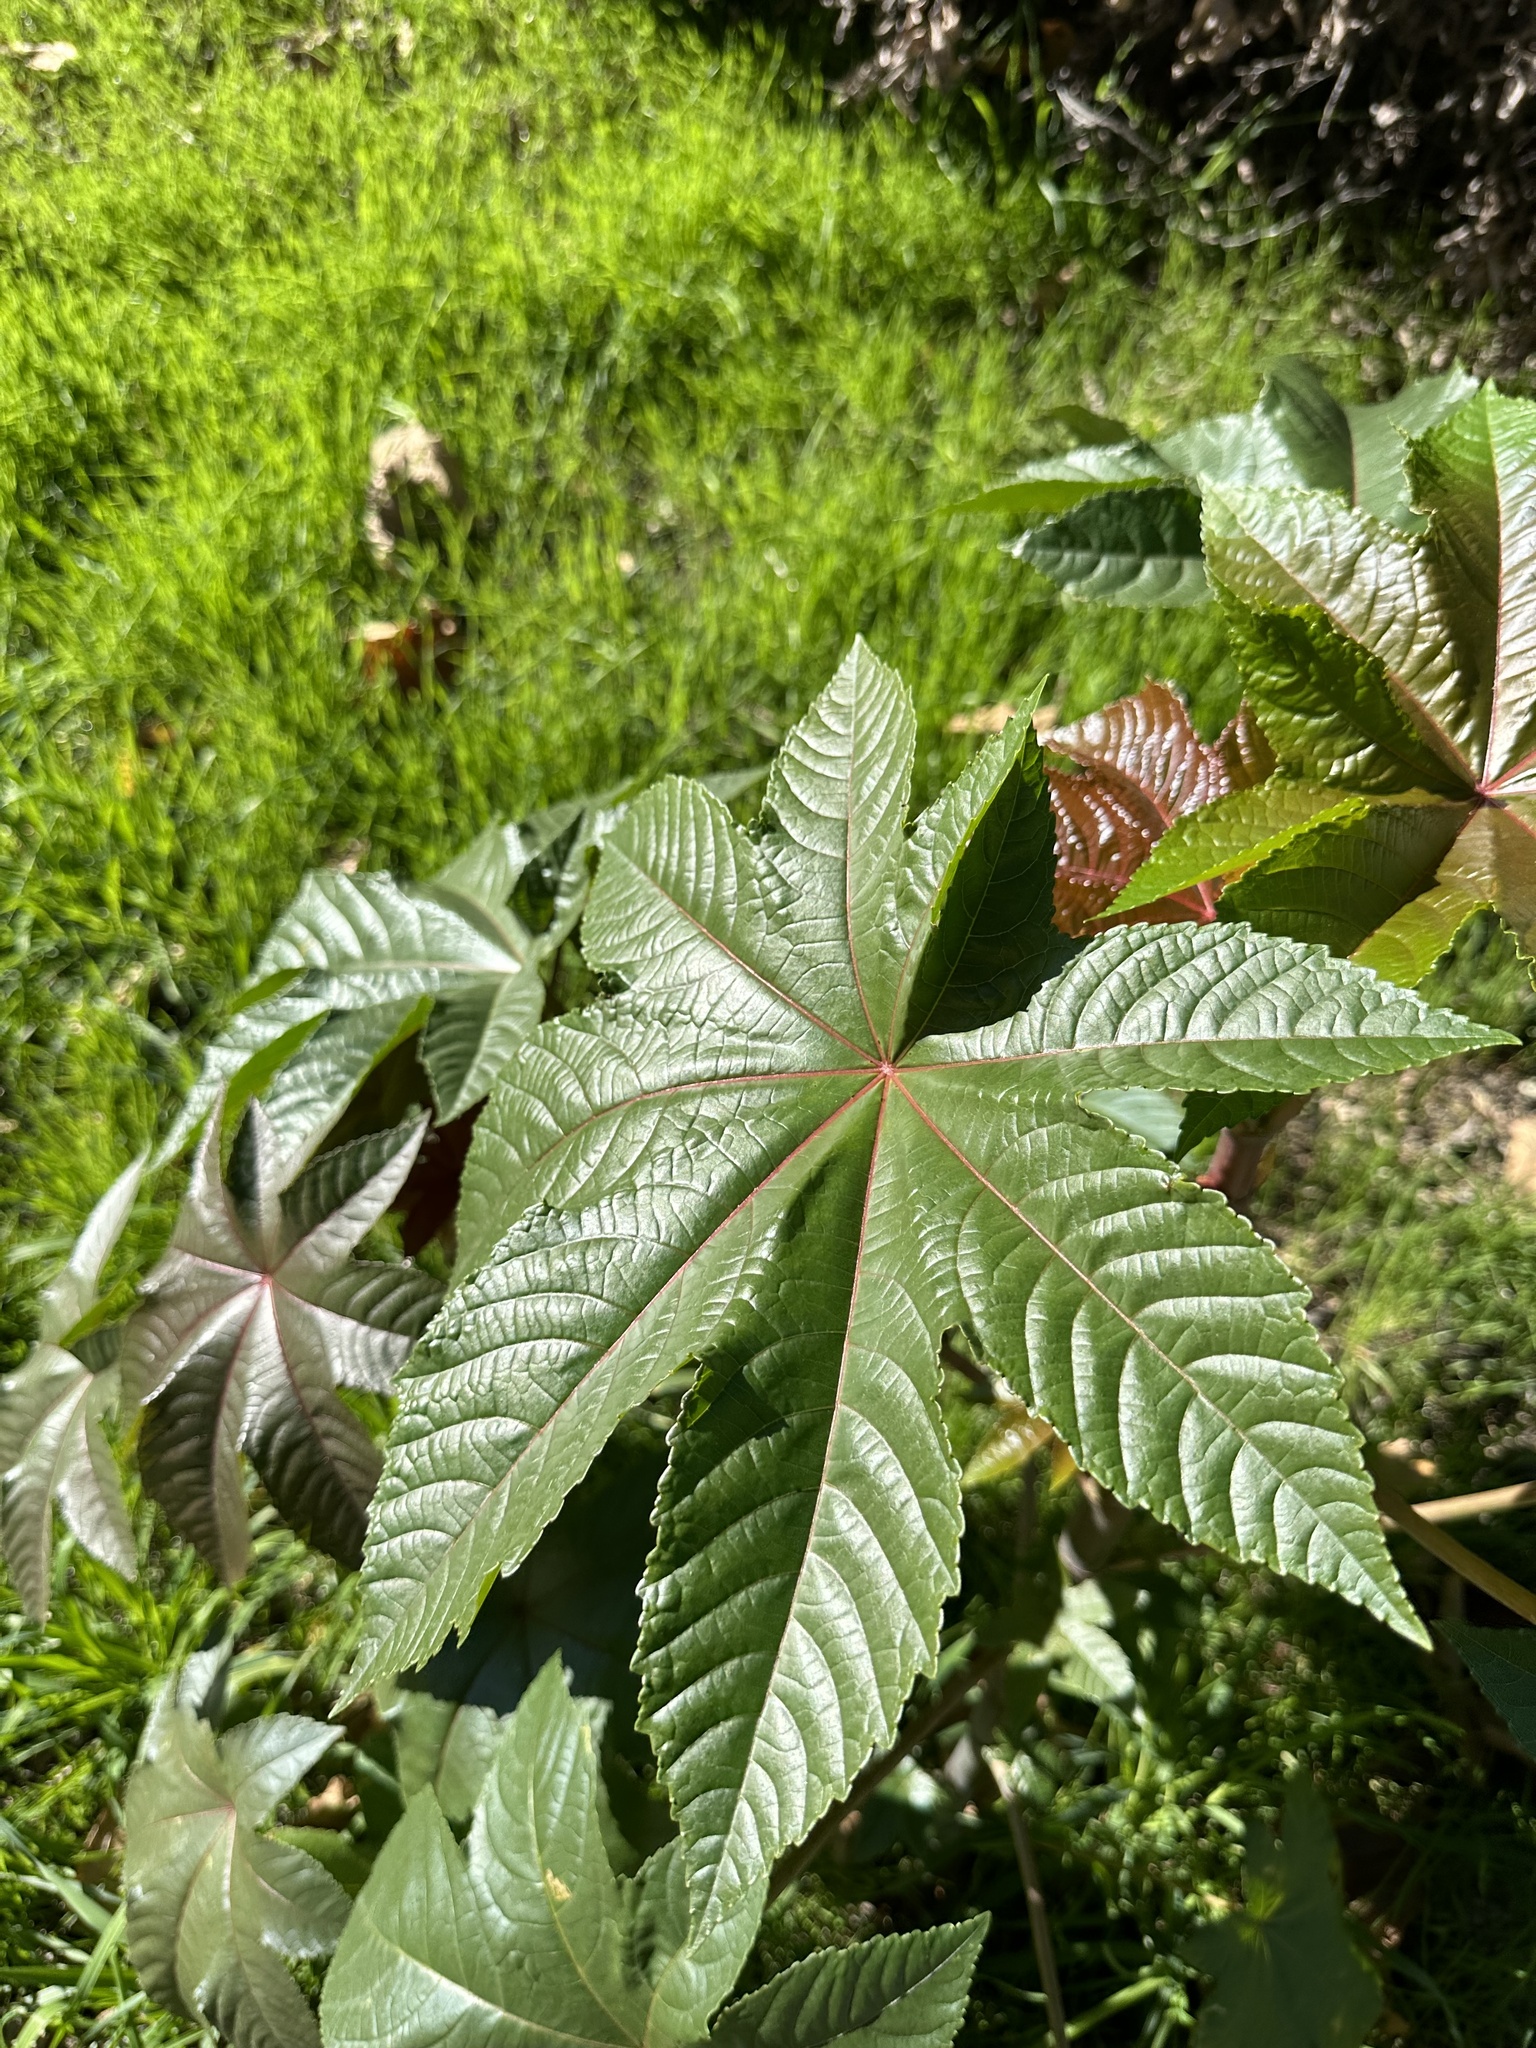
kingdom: Plantae
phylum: Tracheophyta
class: Magnoliopsida
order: Malpighiales
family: Euphorbiaceae
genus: Ricinus
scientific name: Ricinus communis
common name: Castor-oil-plant
